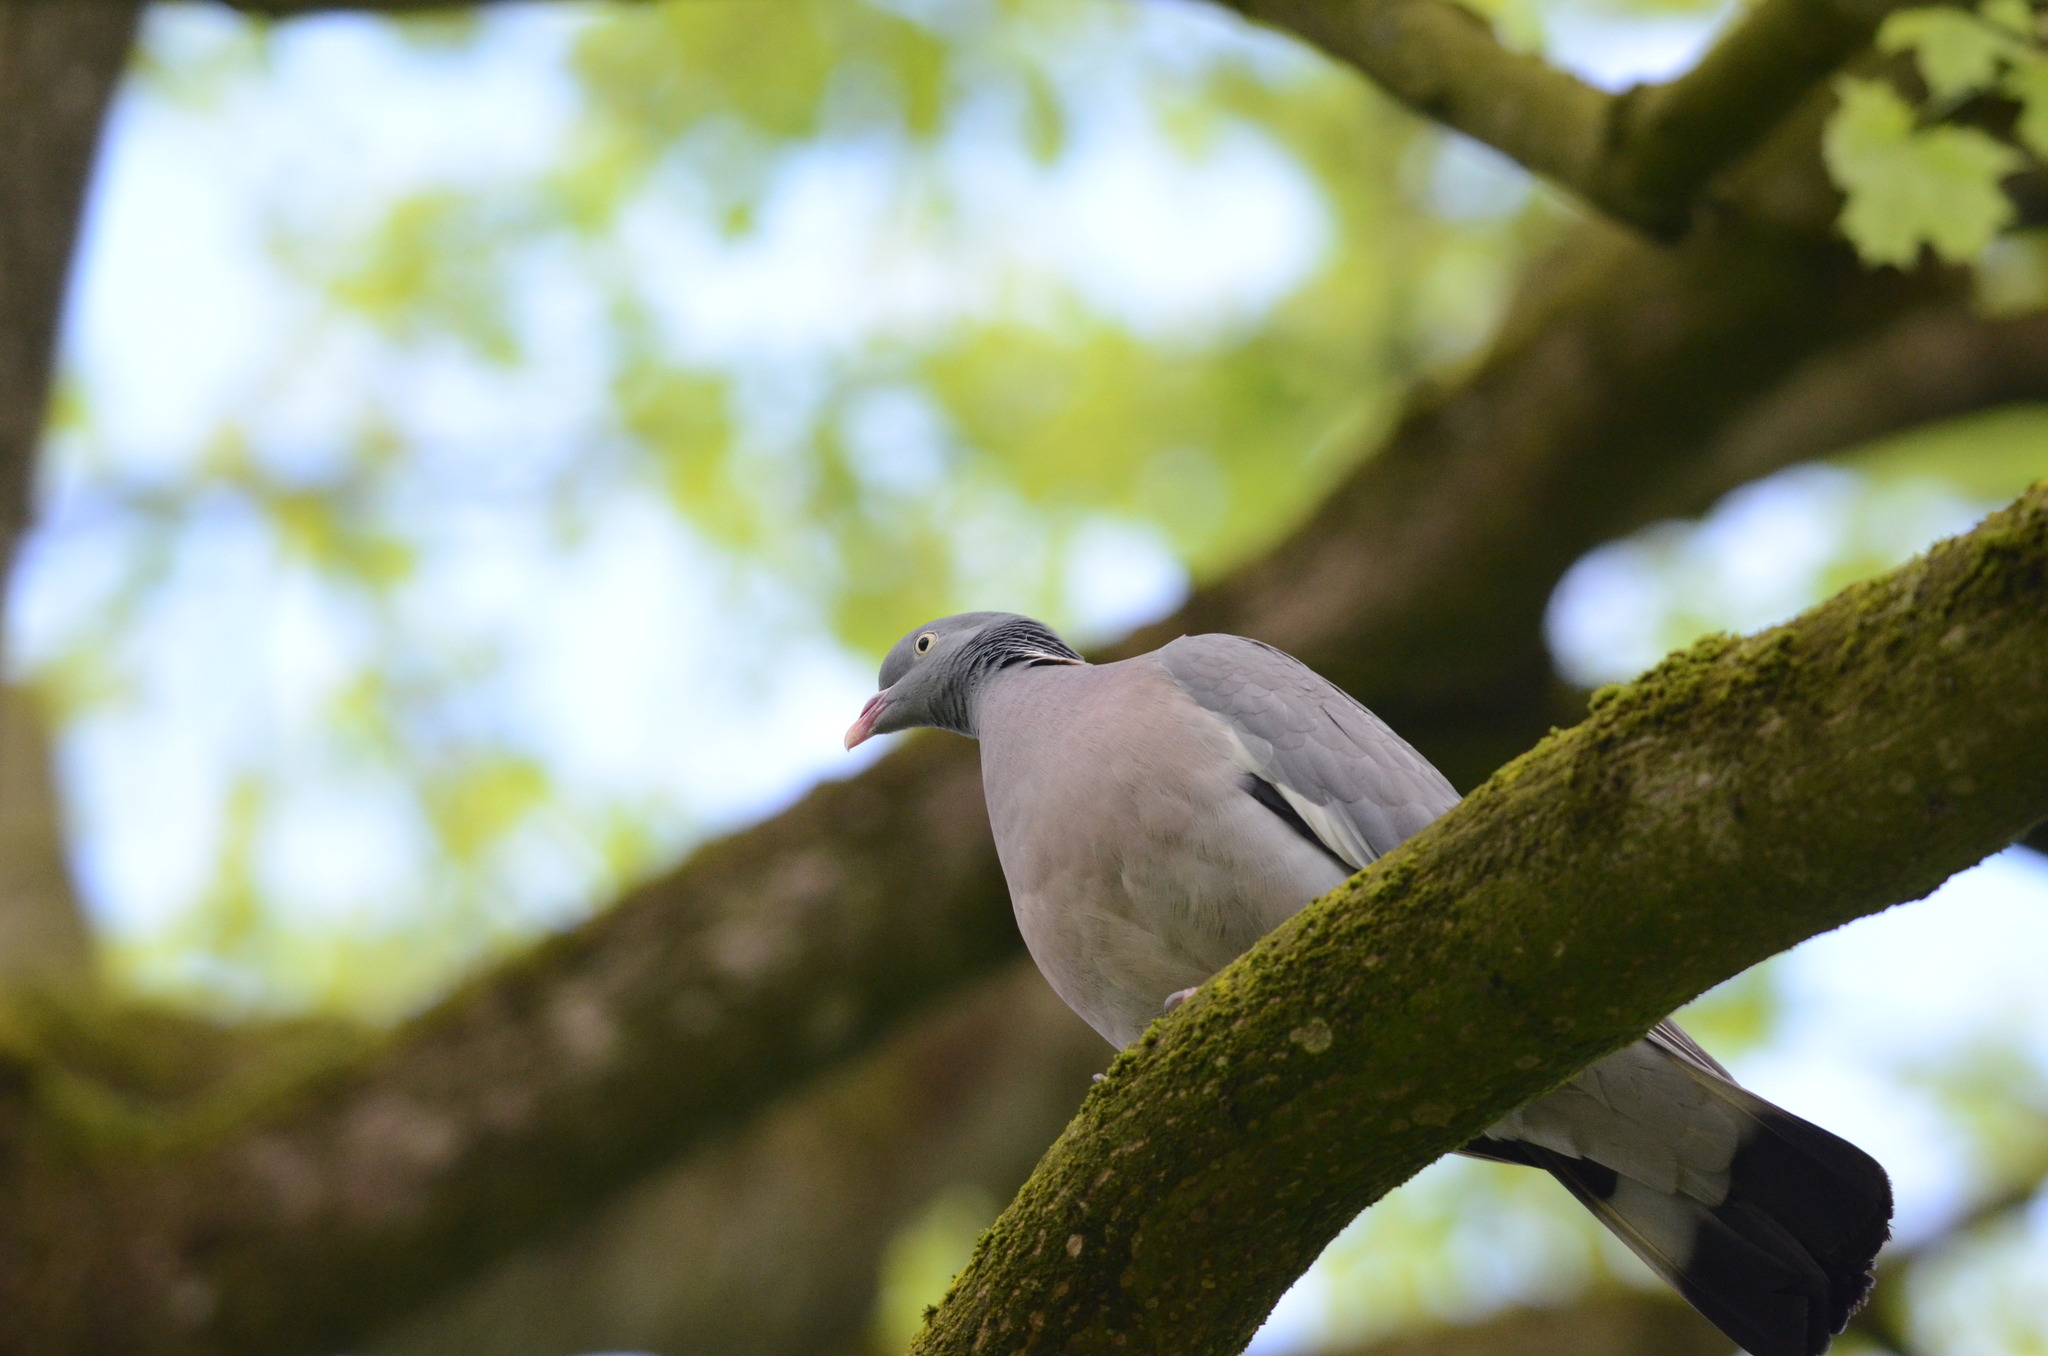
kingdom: Animalia
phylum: Chordata
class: Aves
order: Columbiformes
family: Columbidae
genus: Columba
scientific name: Columba palumbus
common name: Common wood pigeon
